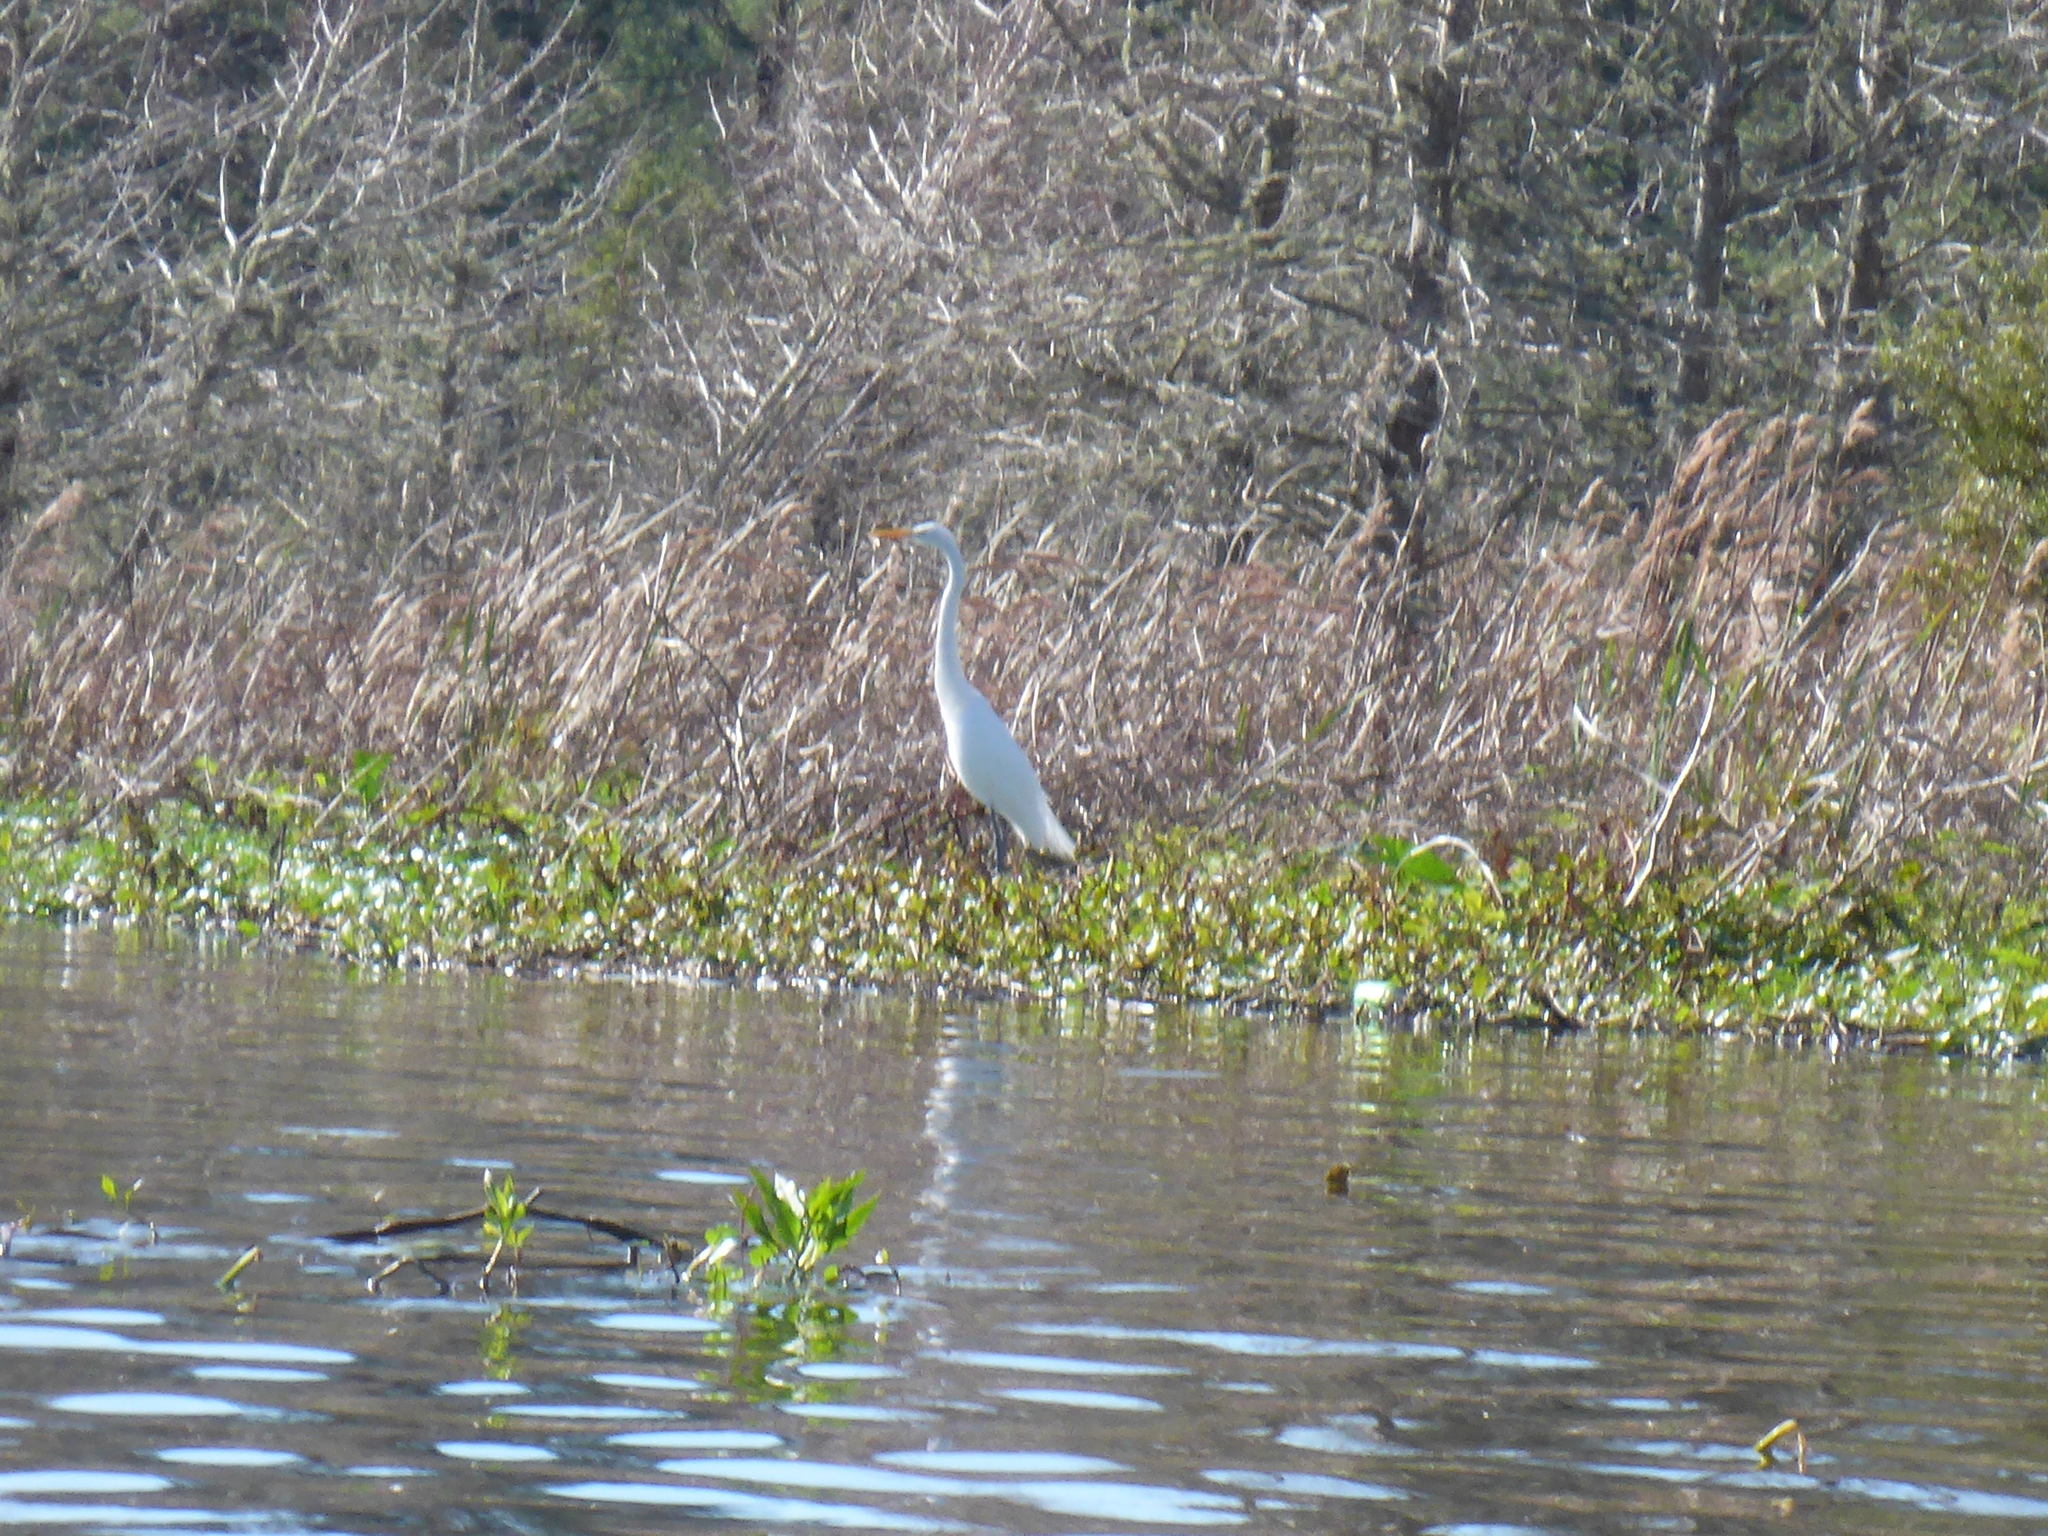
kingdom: Animalia
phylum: Chordata
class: Aves
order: Pelecaniformes
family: Ardeidae
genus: Ardea
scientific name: Ardea alba
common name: Great egret
